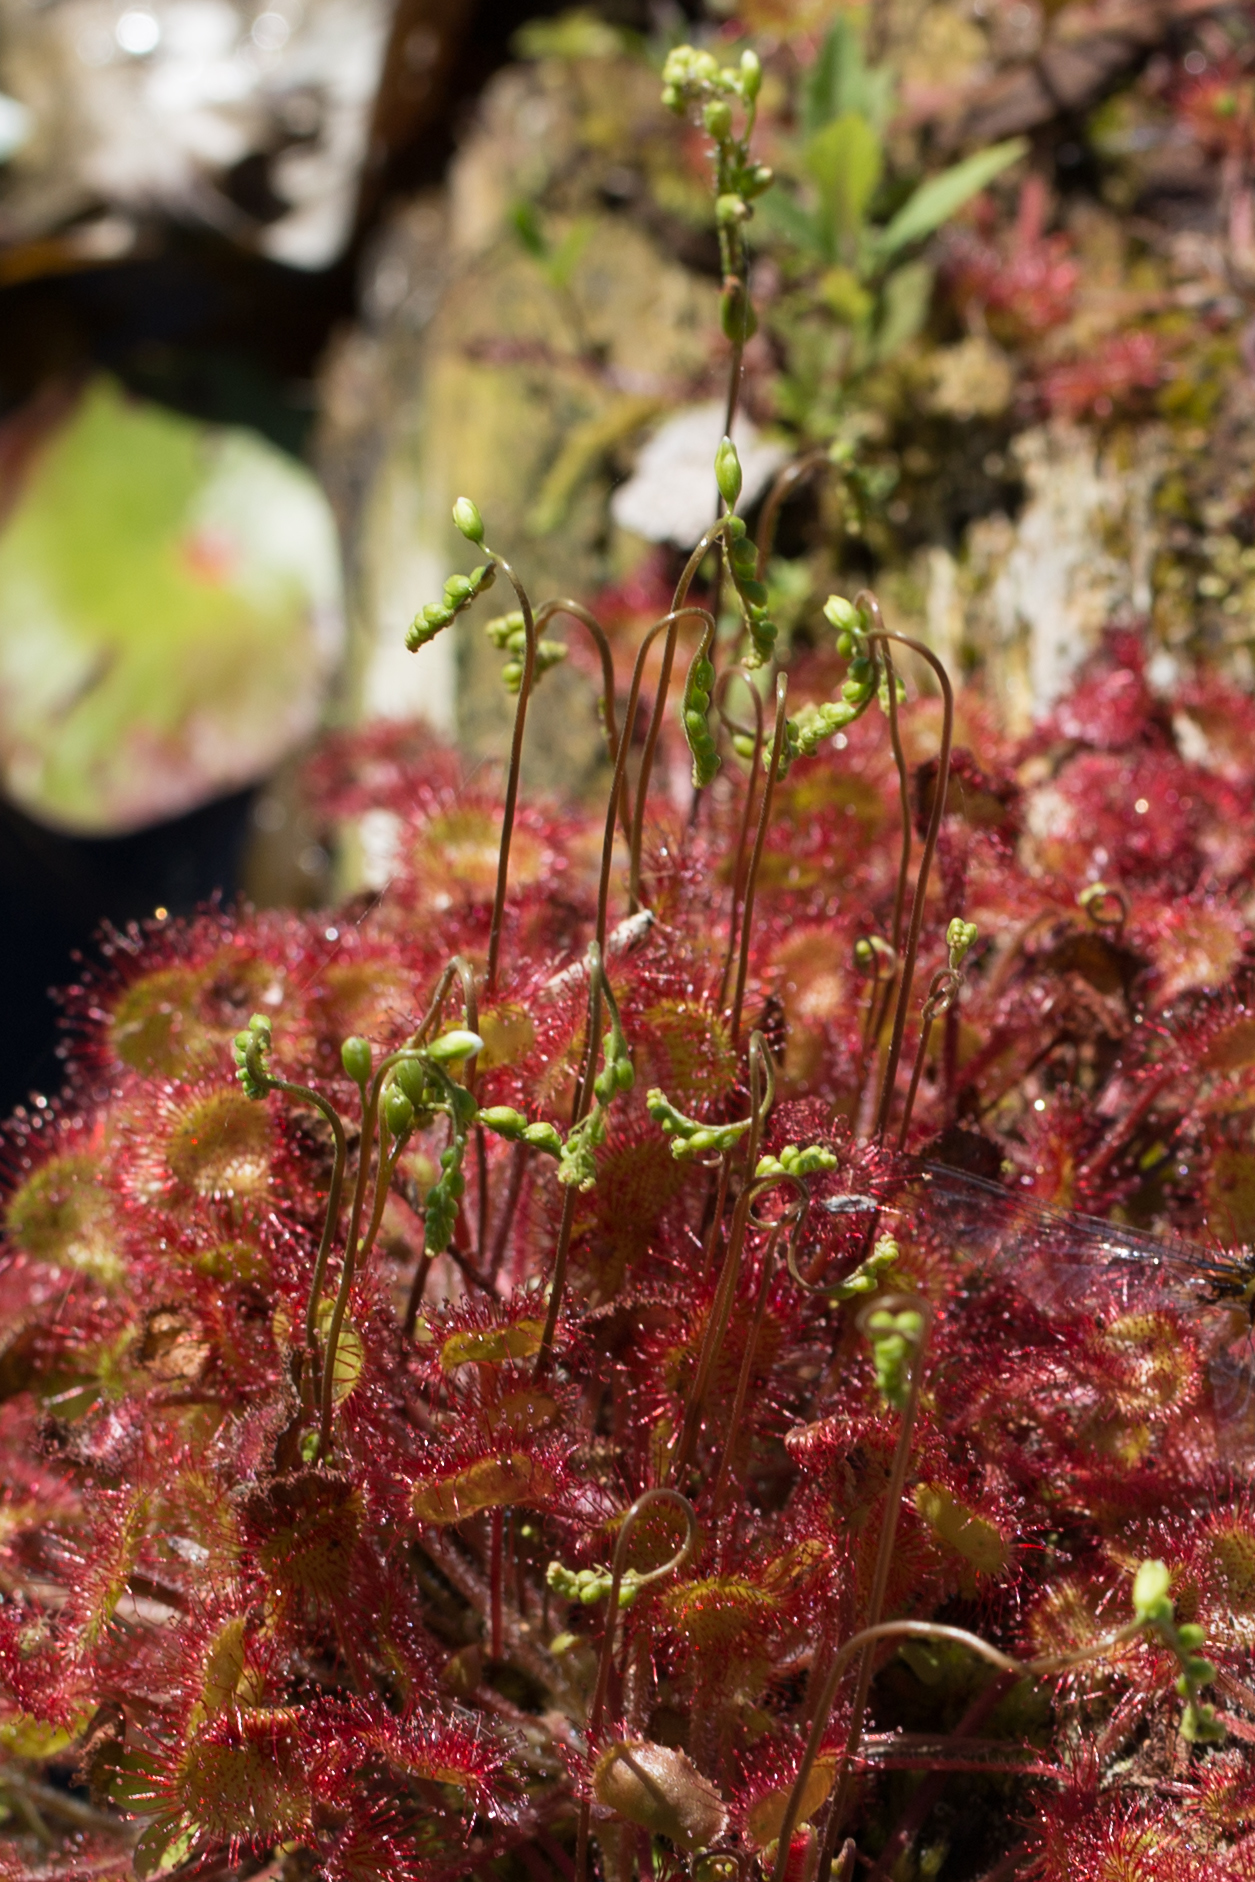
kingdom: Plantae
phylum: Tracheophyta
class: Magnoliopsida
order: Caryophyllales
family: Droseraceae
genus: Drosera
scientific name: Drosera rotundifolia
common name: Round-leaved sundew
